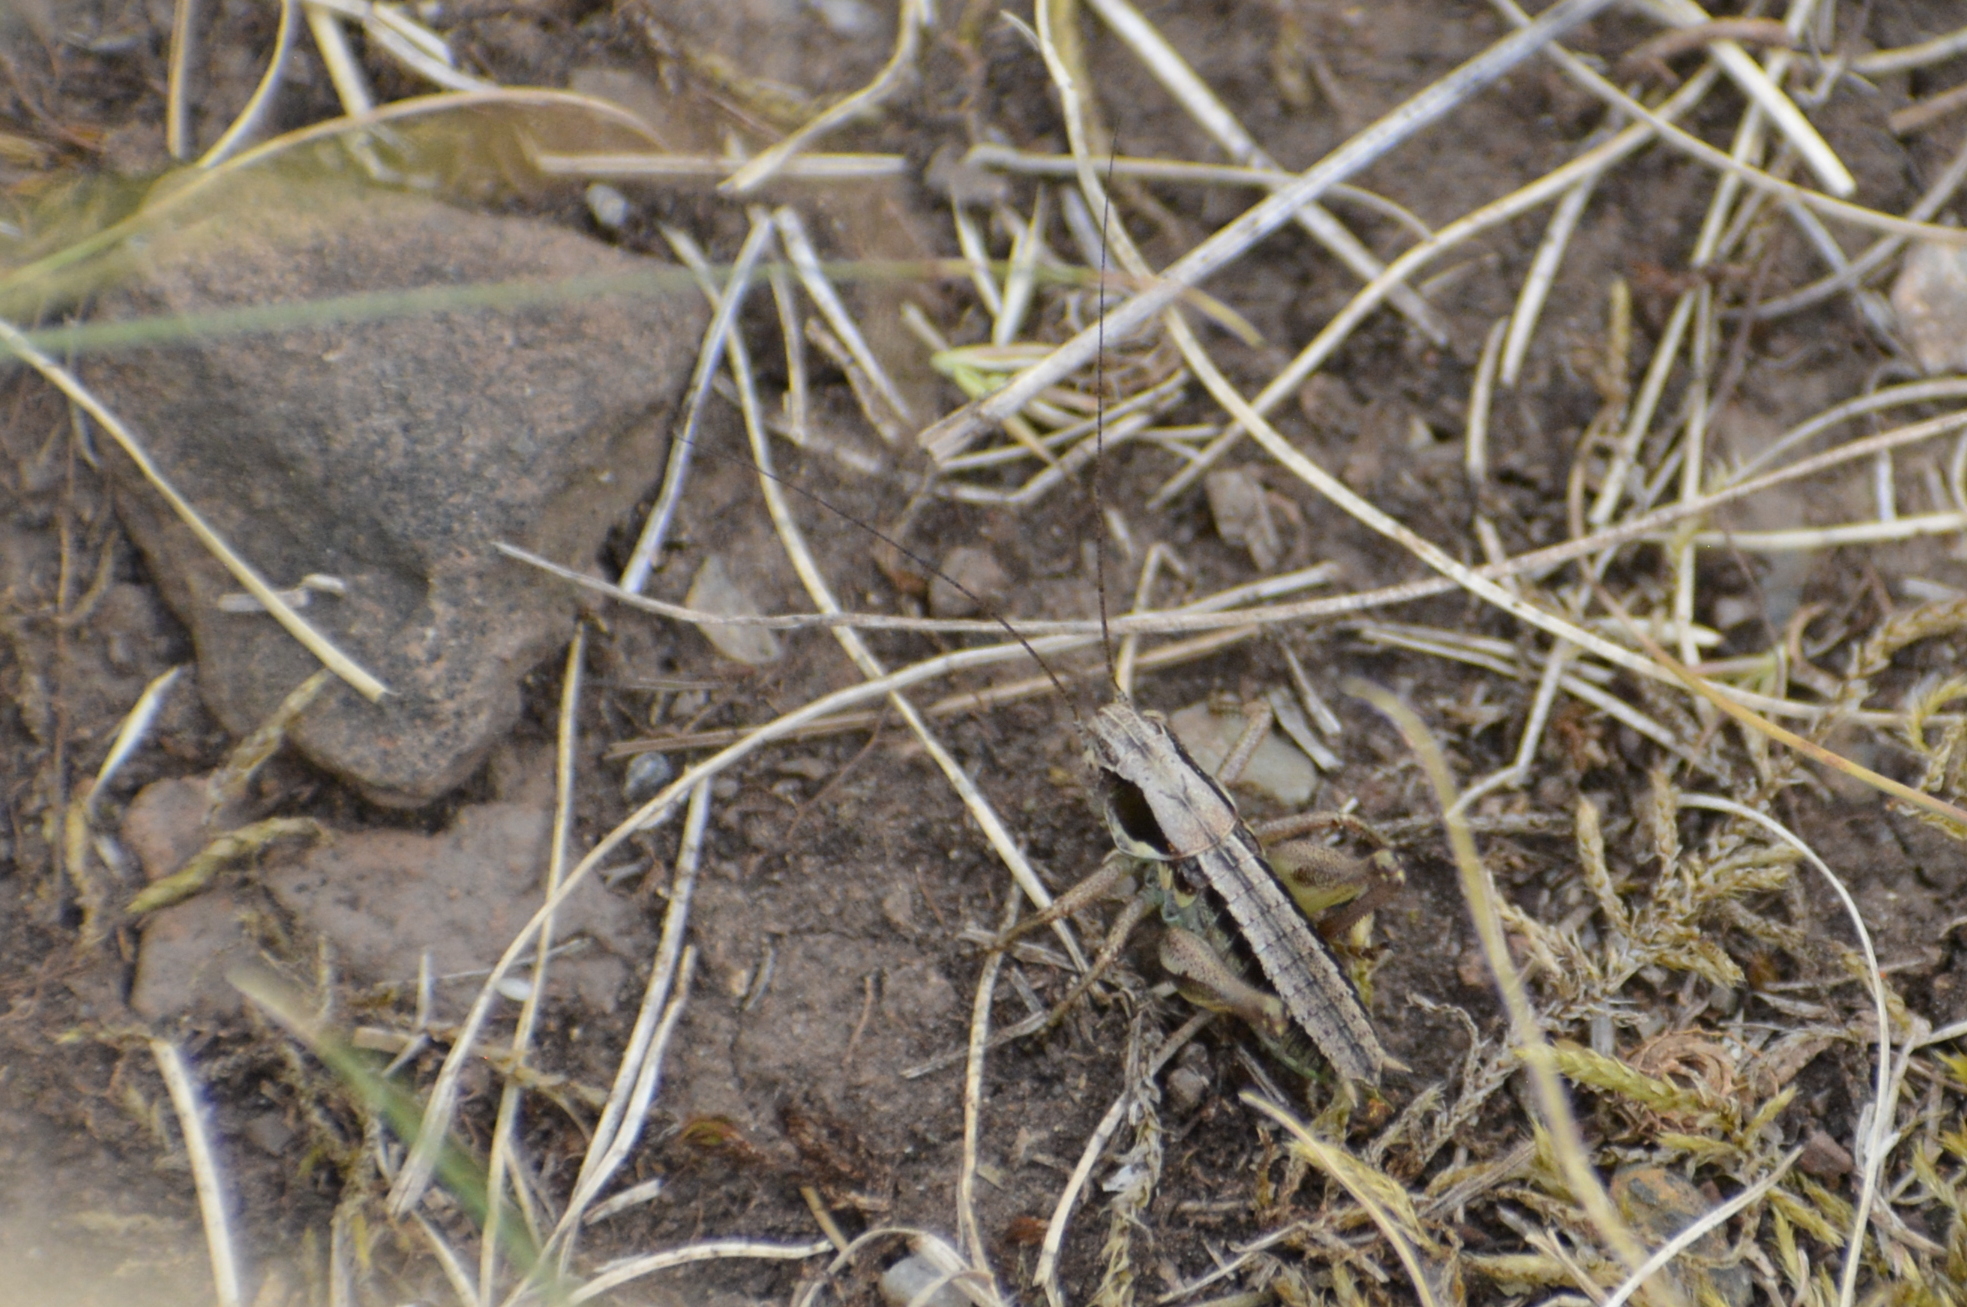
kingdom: Animalia
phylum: Arthropoda
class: Insecta
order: Orthoptera
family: Tettigoniidae
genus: Platycleis
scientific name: Platycleis albopunctata
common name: Grey bush-cricket
